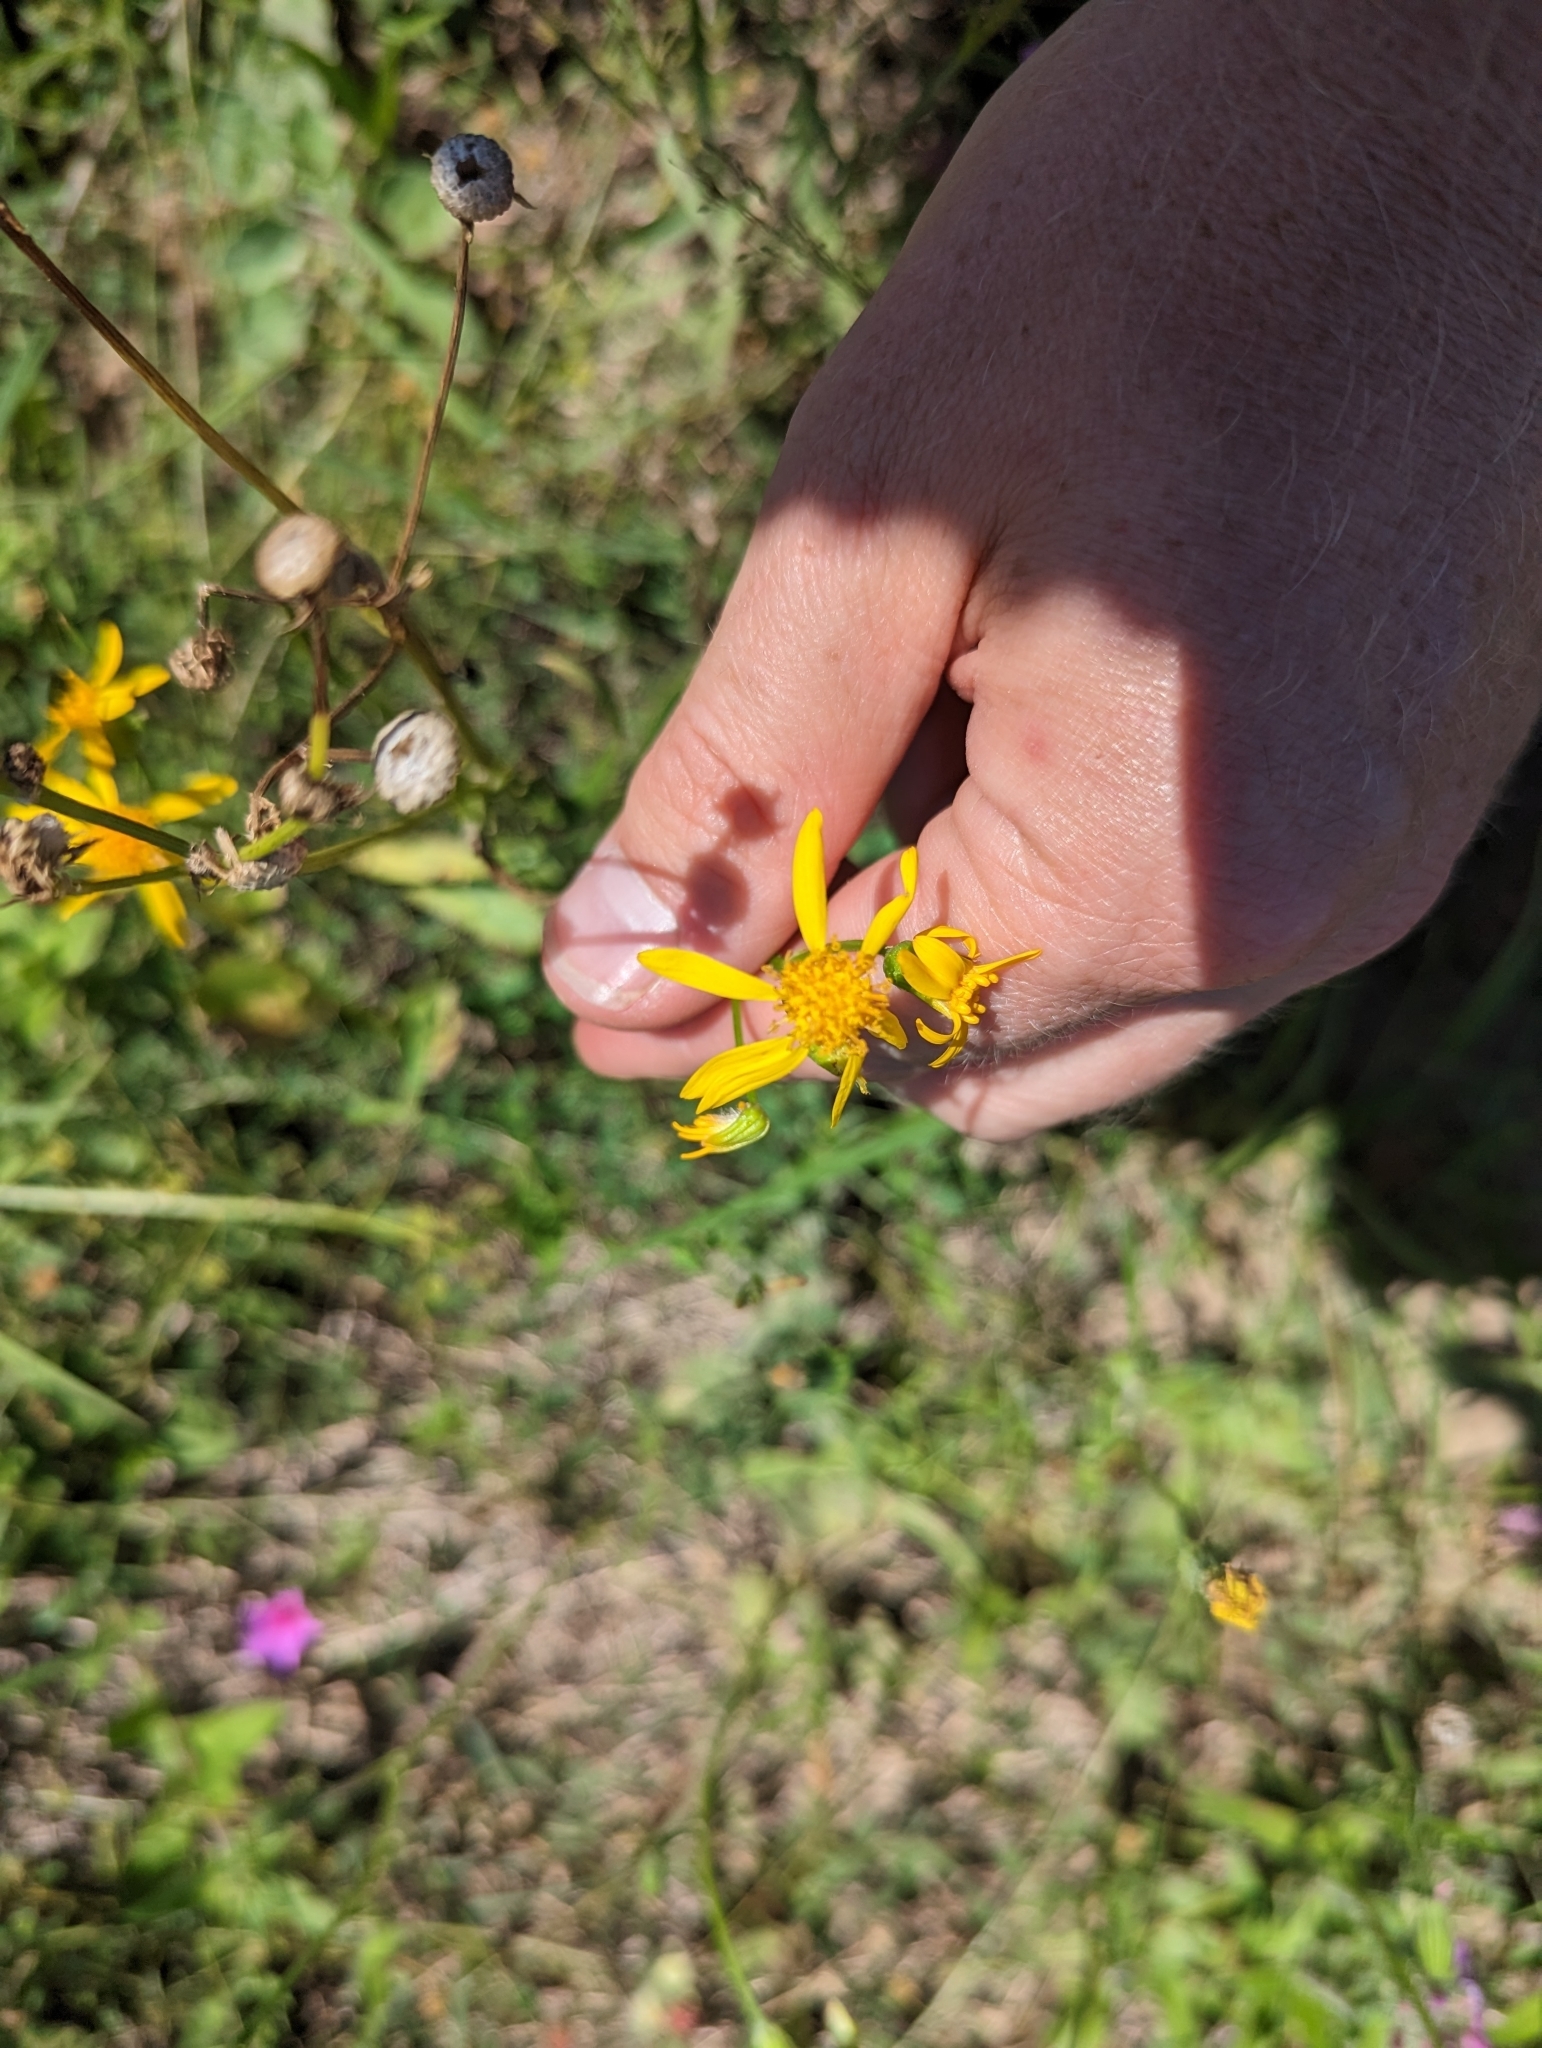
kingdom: Plantae
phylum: Tracheophyta
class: Magnoliopsida
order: Asterales
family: Asteraceae
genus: Senecio
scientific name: Senecio ampullaceus
